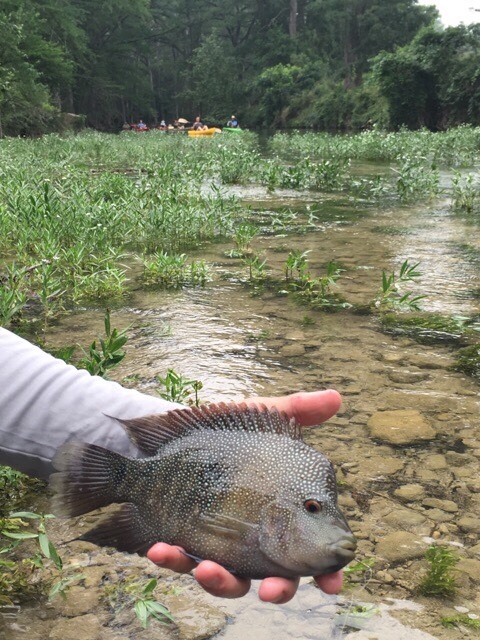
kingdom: Animalia
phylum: Chordata
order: Perciformes
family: Cichlidae
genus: Herichthys
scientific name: Herichthys cyanoguttatus
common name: Rio grande cichlid
